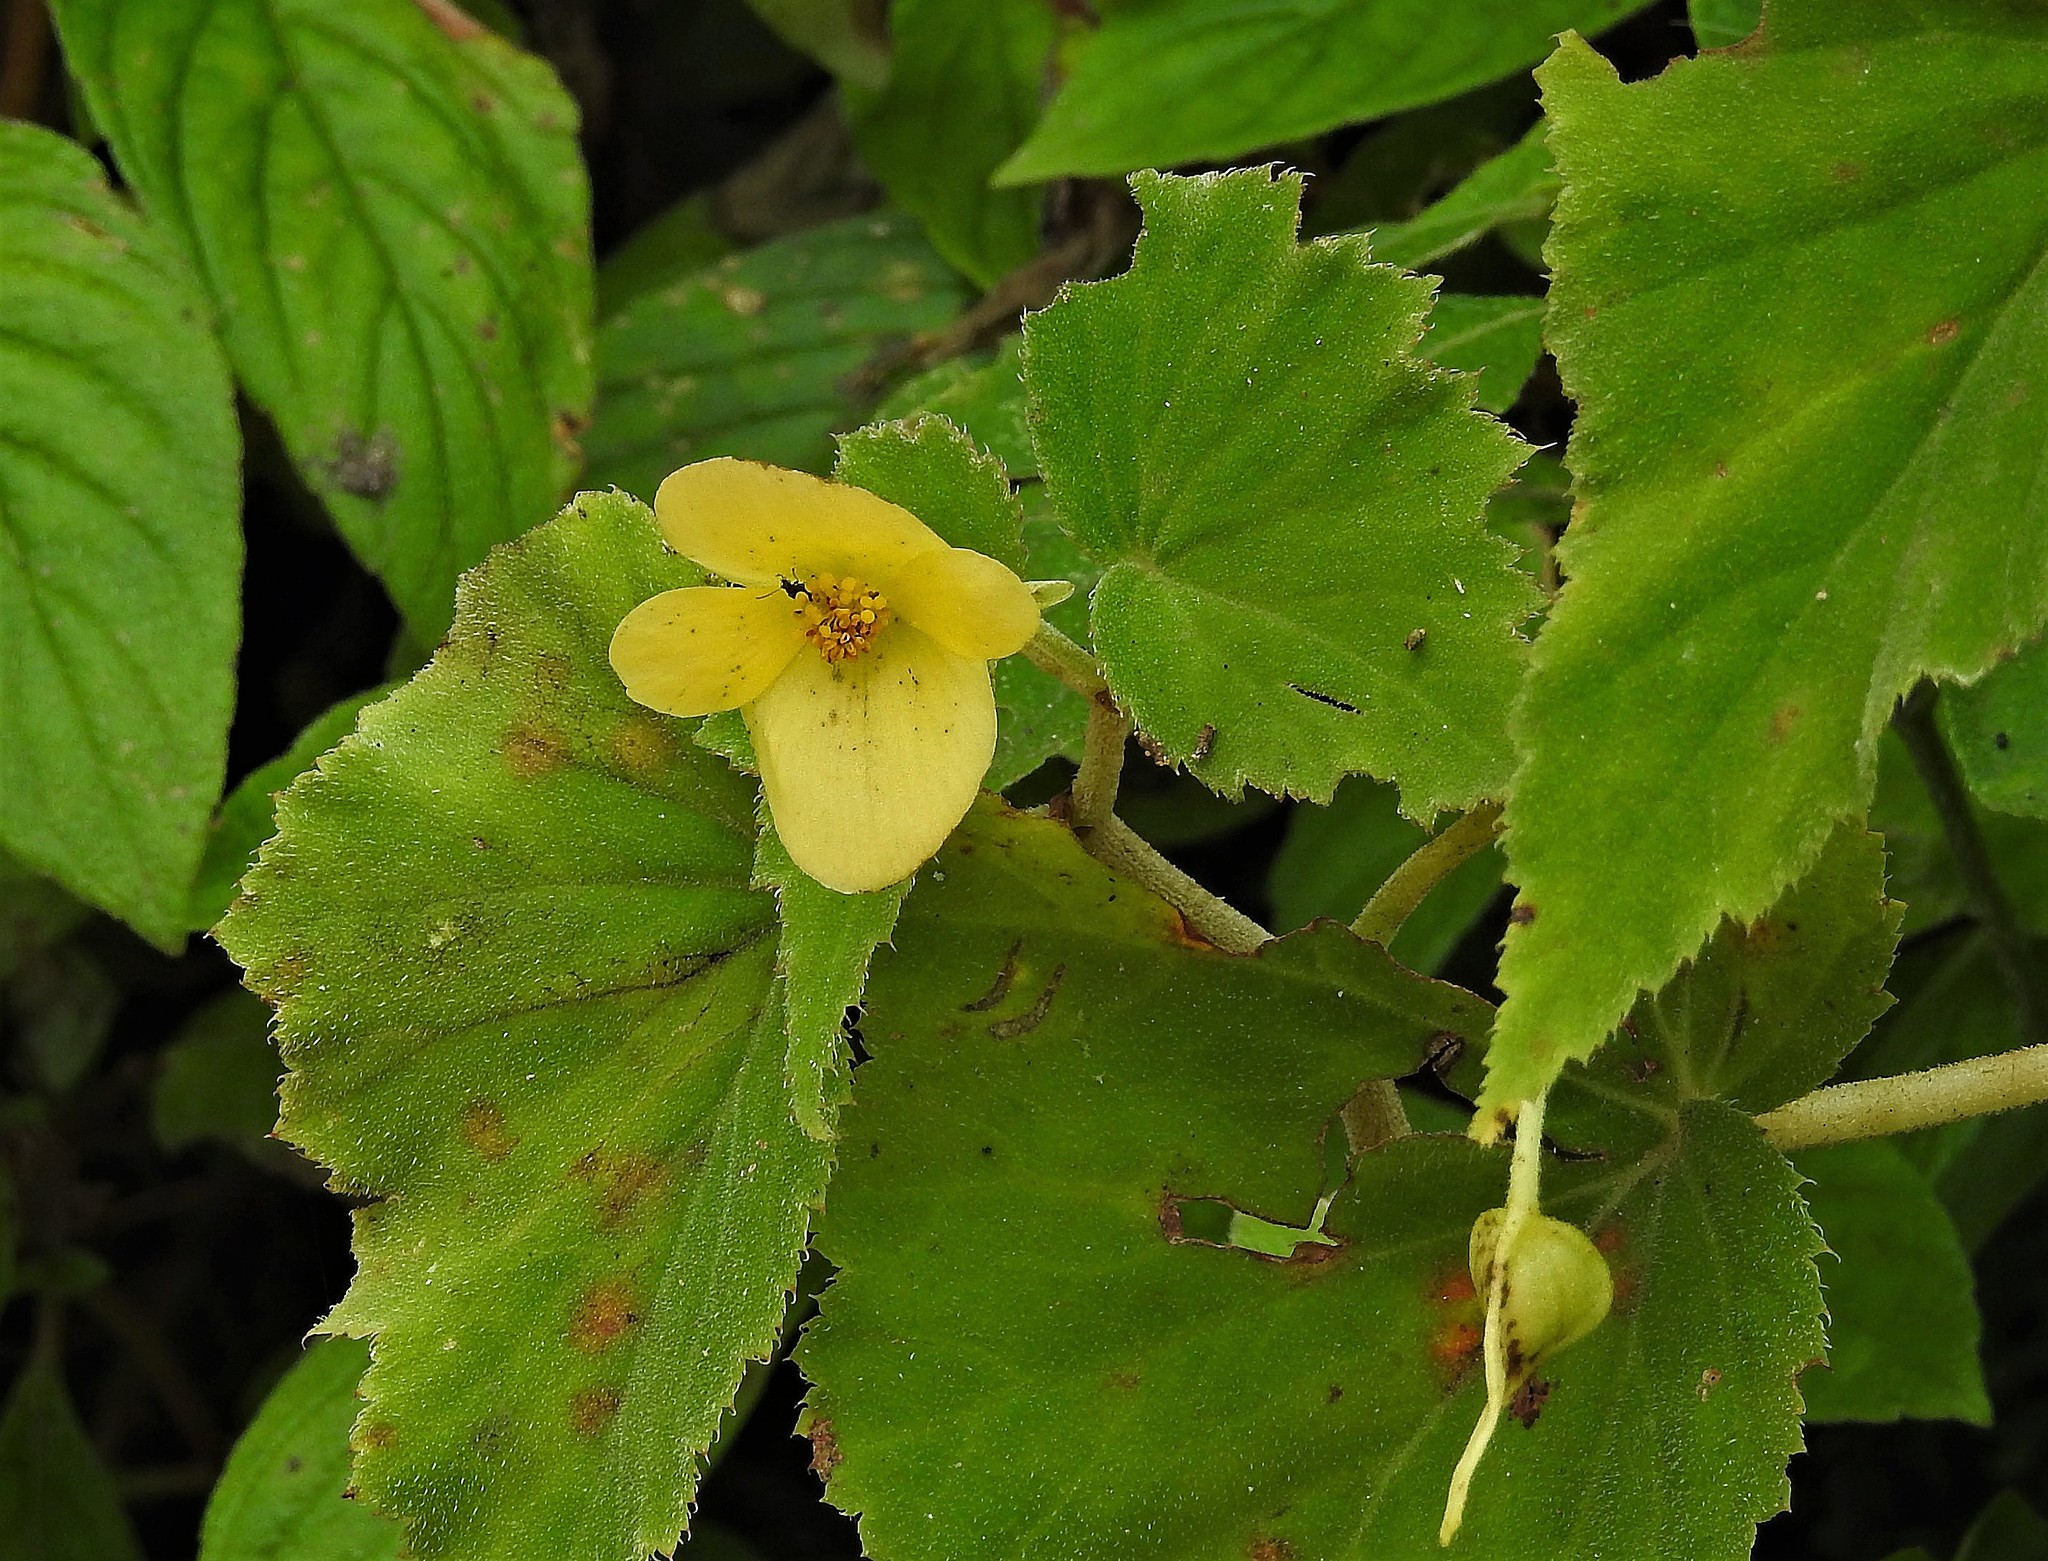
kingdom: Plantae
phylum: Tracheophyta
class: Magnoliopsida
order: Cucurbitales
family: Begoniaceae
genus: Begonia
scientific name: Begonia micranthera
